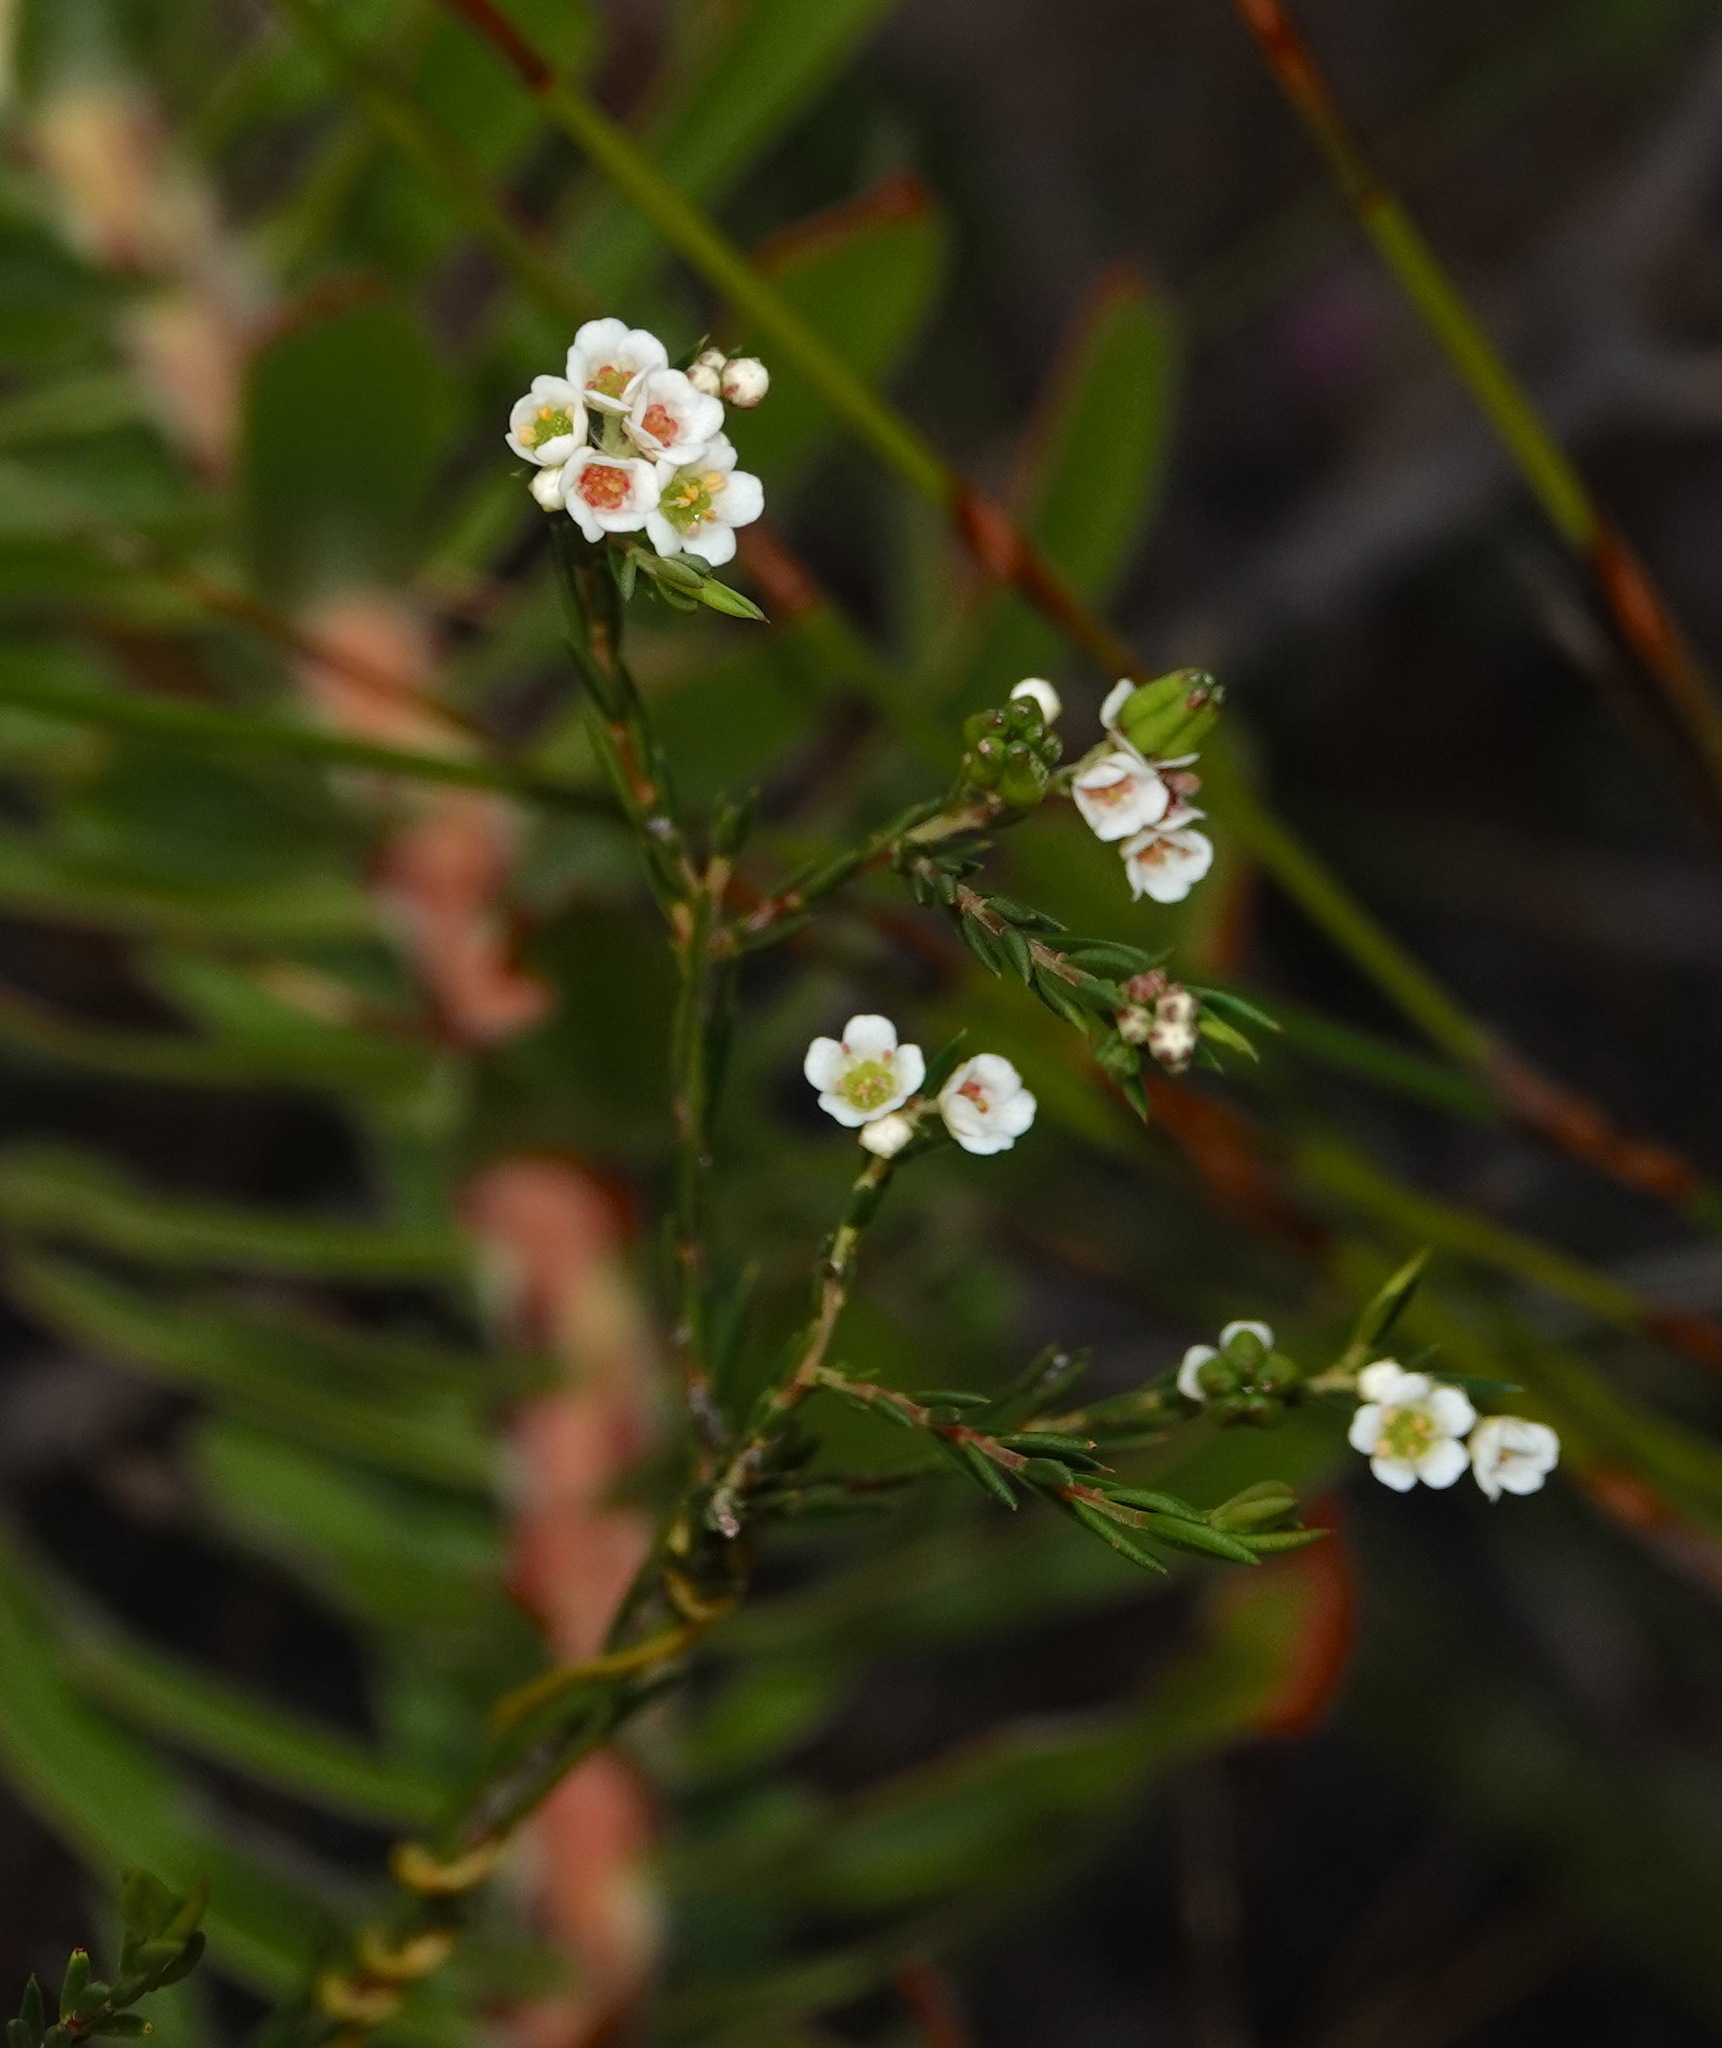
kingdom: Plantae
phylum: Tracheophyta
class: Magnoliopsida
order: Sapindales
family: Rutaceae
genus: Diosma
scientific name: Diosma hirsuta
